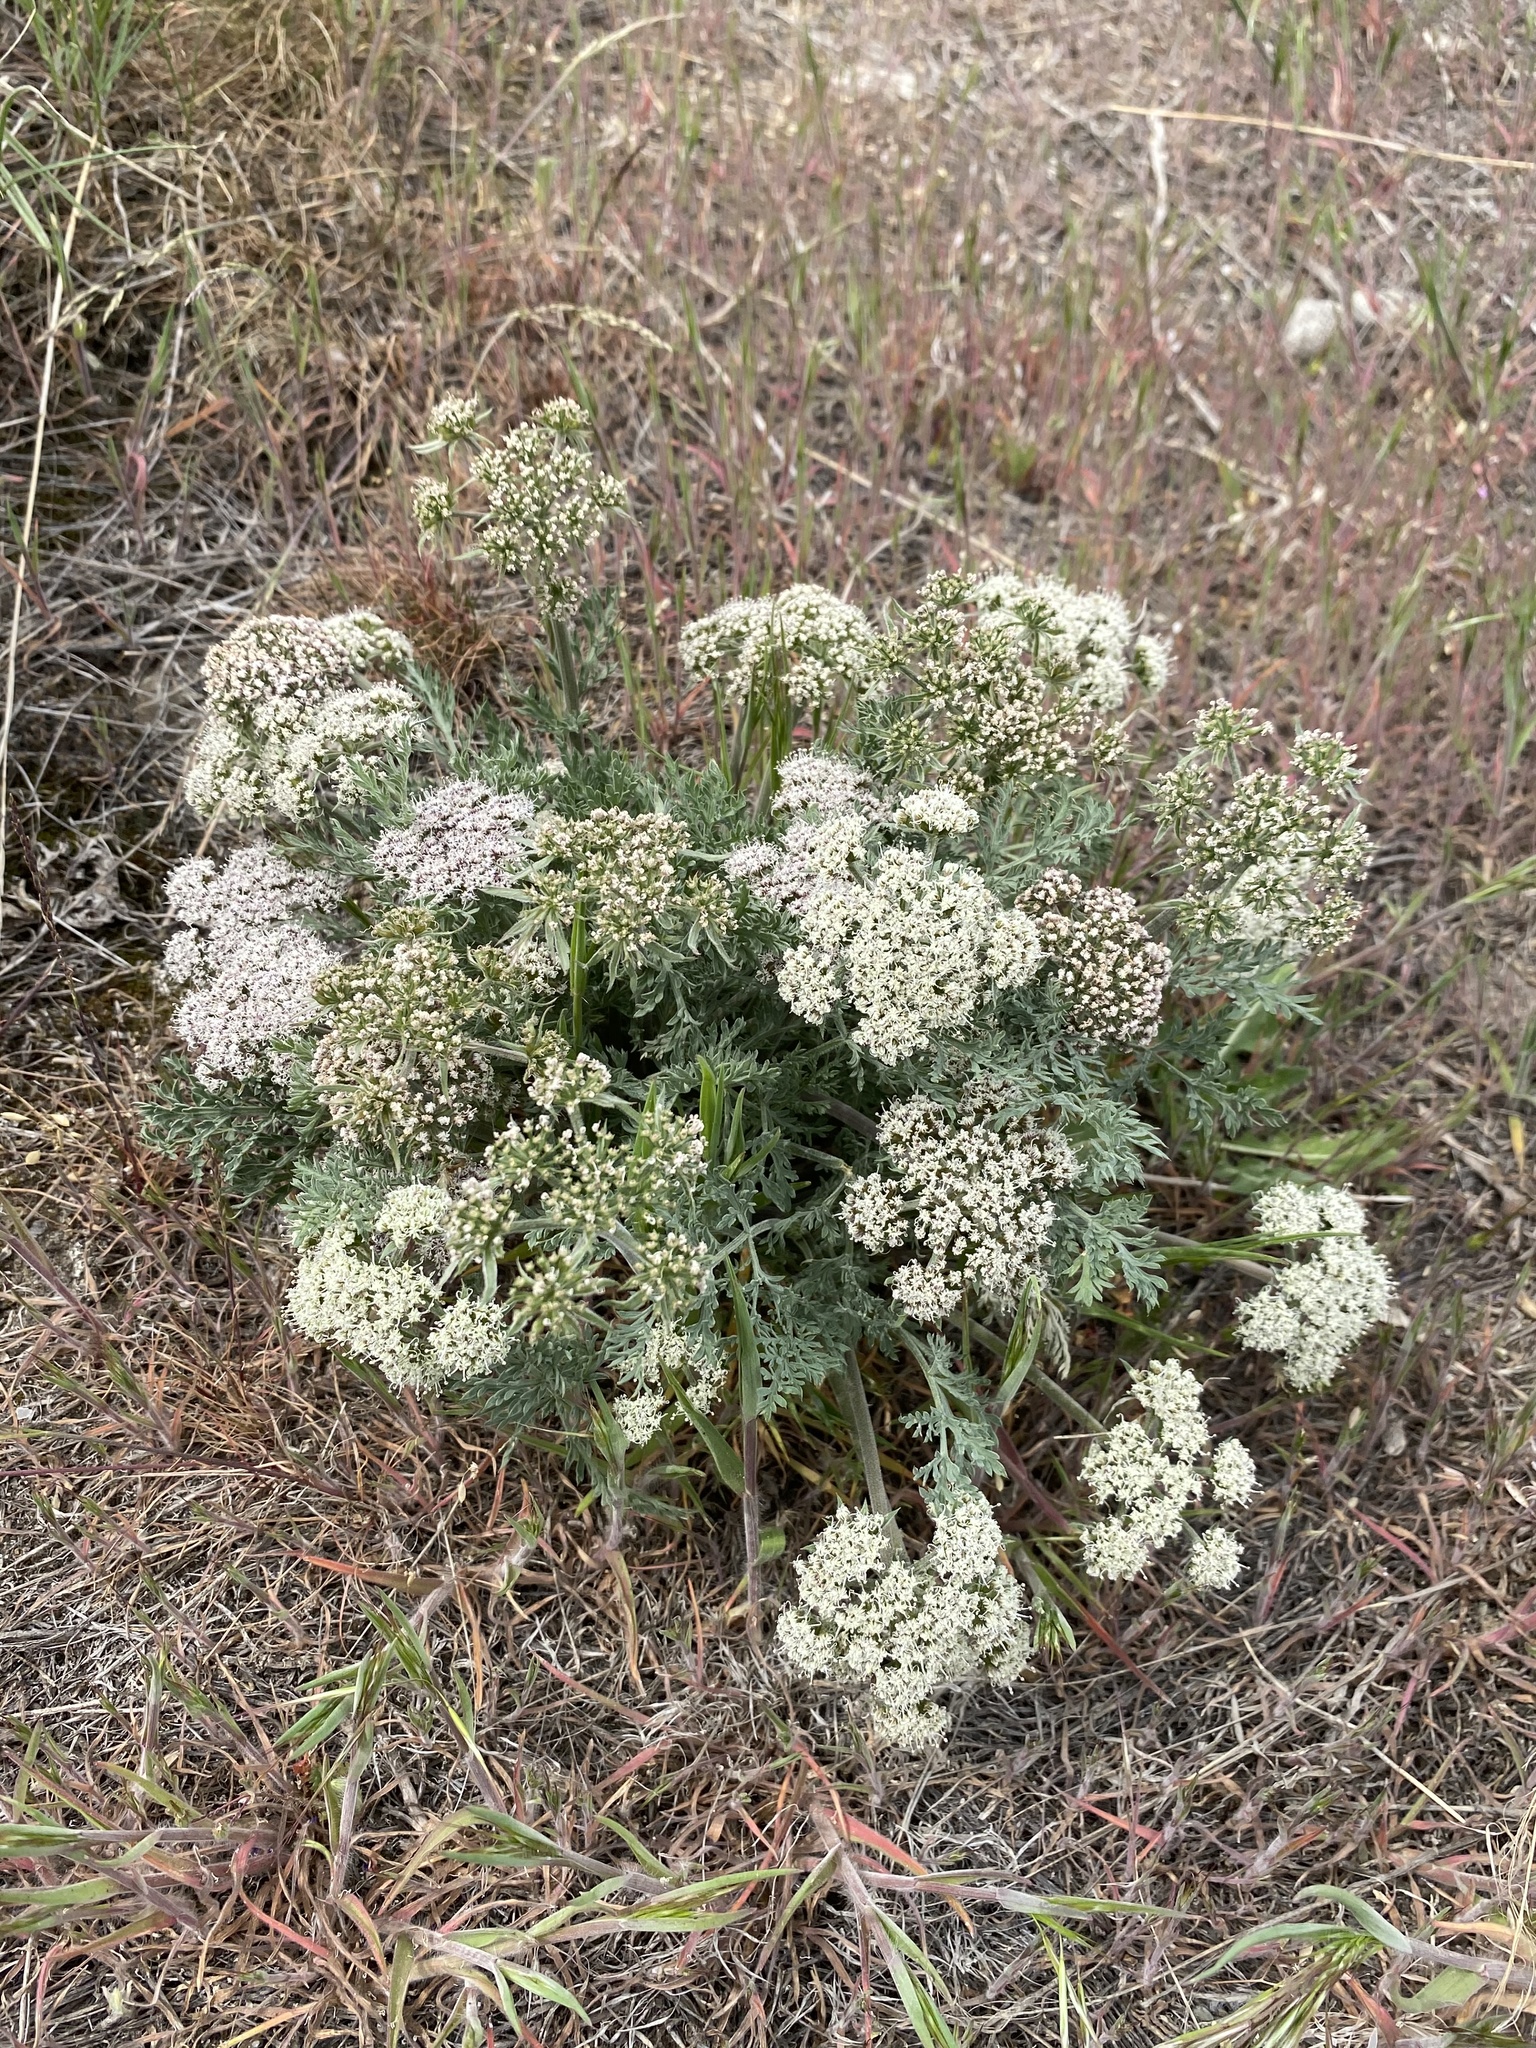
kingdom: Plantae
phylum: Tracheophyta
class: Magnoliopsida
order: Apiales
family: Apiaceae
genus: Lomatium
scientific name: Lomatium macrocarpum
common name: Big-seed biscuitroot
